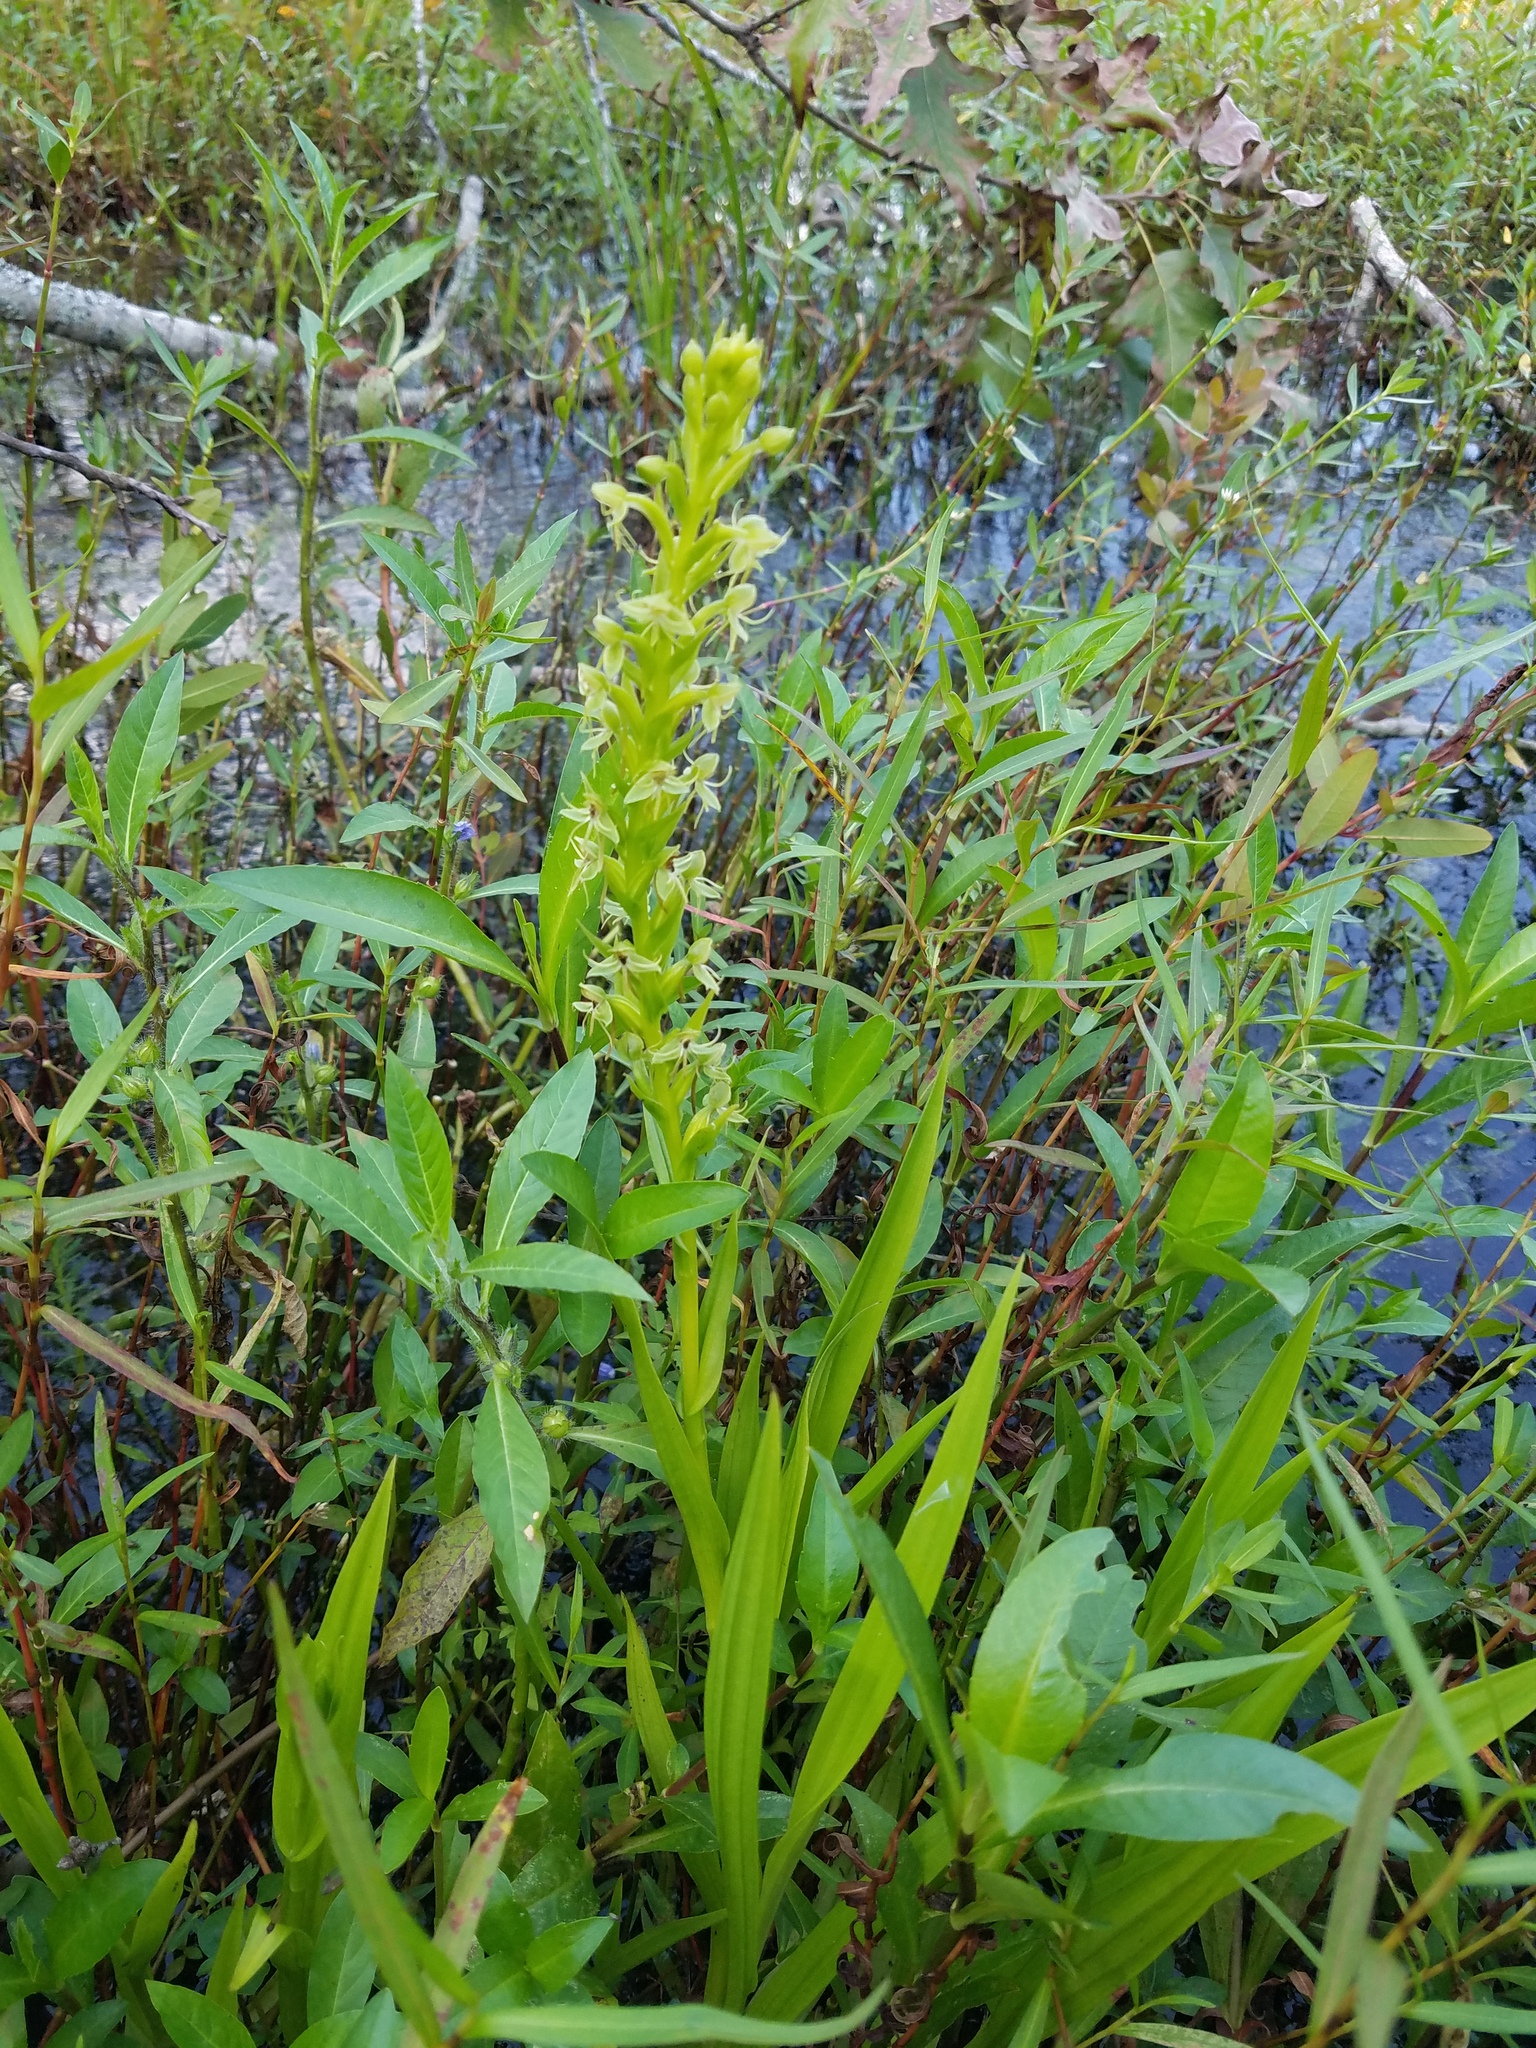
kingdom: Plantae
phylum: Tracheophyta
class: Liliopsida
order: Asparagales
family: Orchidaceae
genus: Habenaria
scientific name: Habenaria repens
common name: Water orchid
